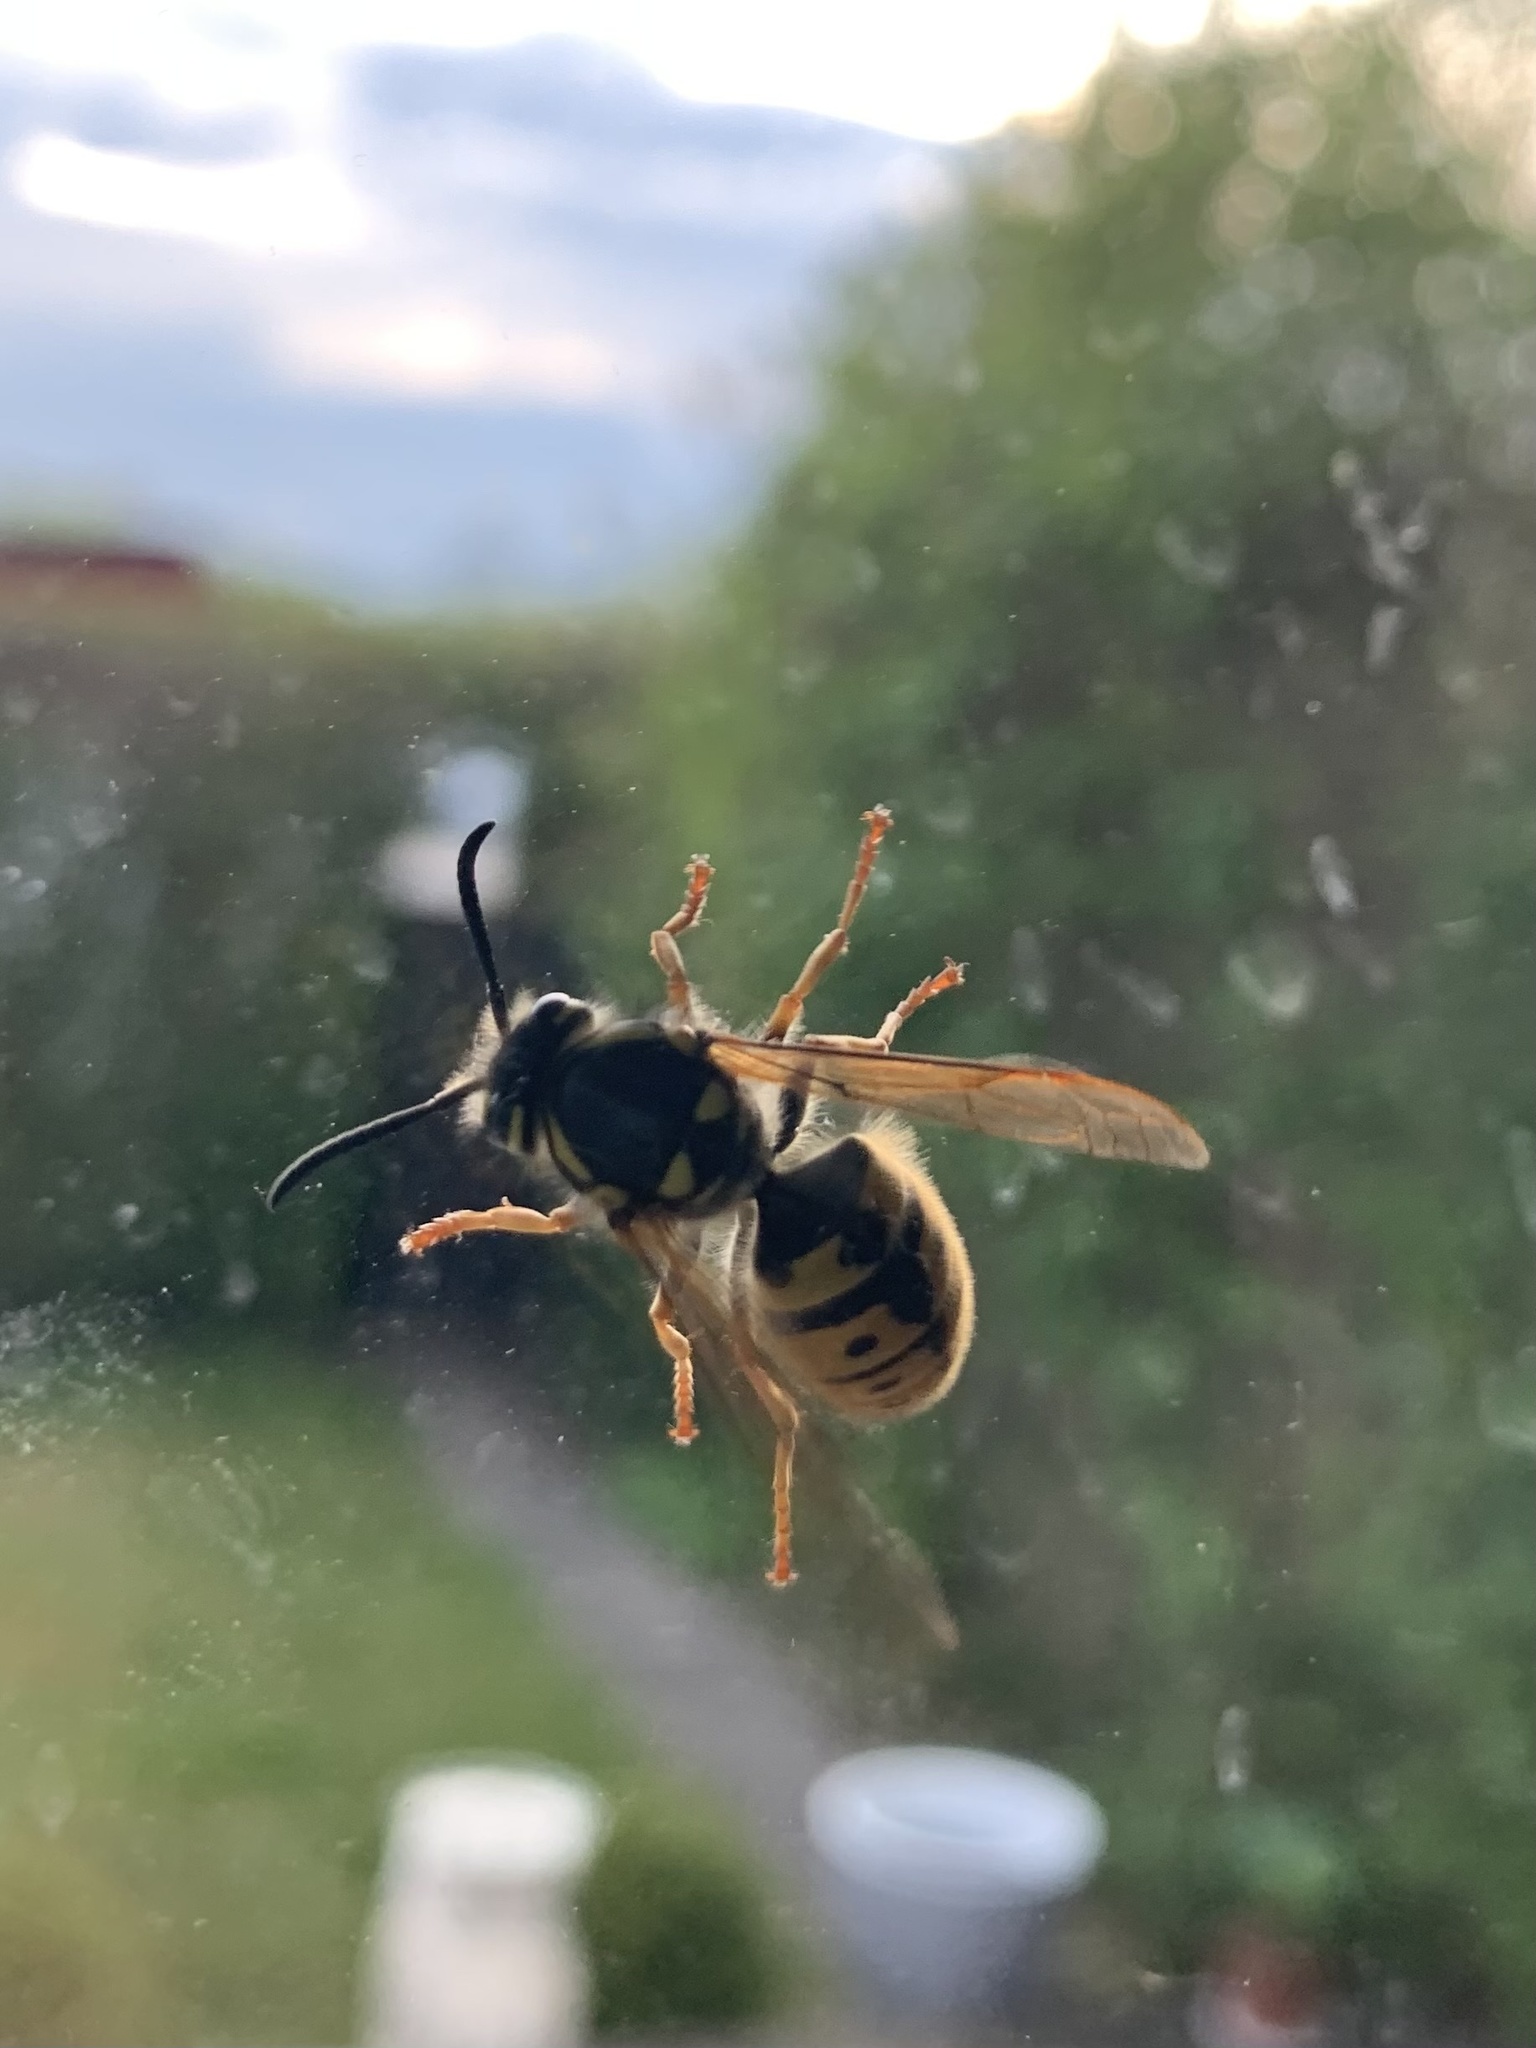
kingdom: Animalia
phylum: Arthropoda
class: Insecta
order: Hymenoptera
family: Vespidae
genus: Vespula
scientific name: Vespula germanica
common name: German wasp
